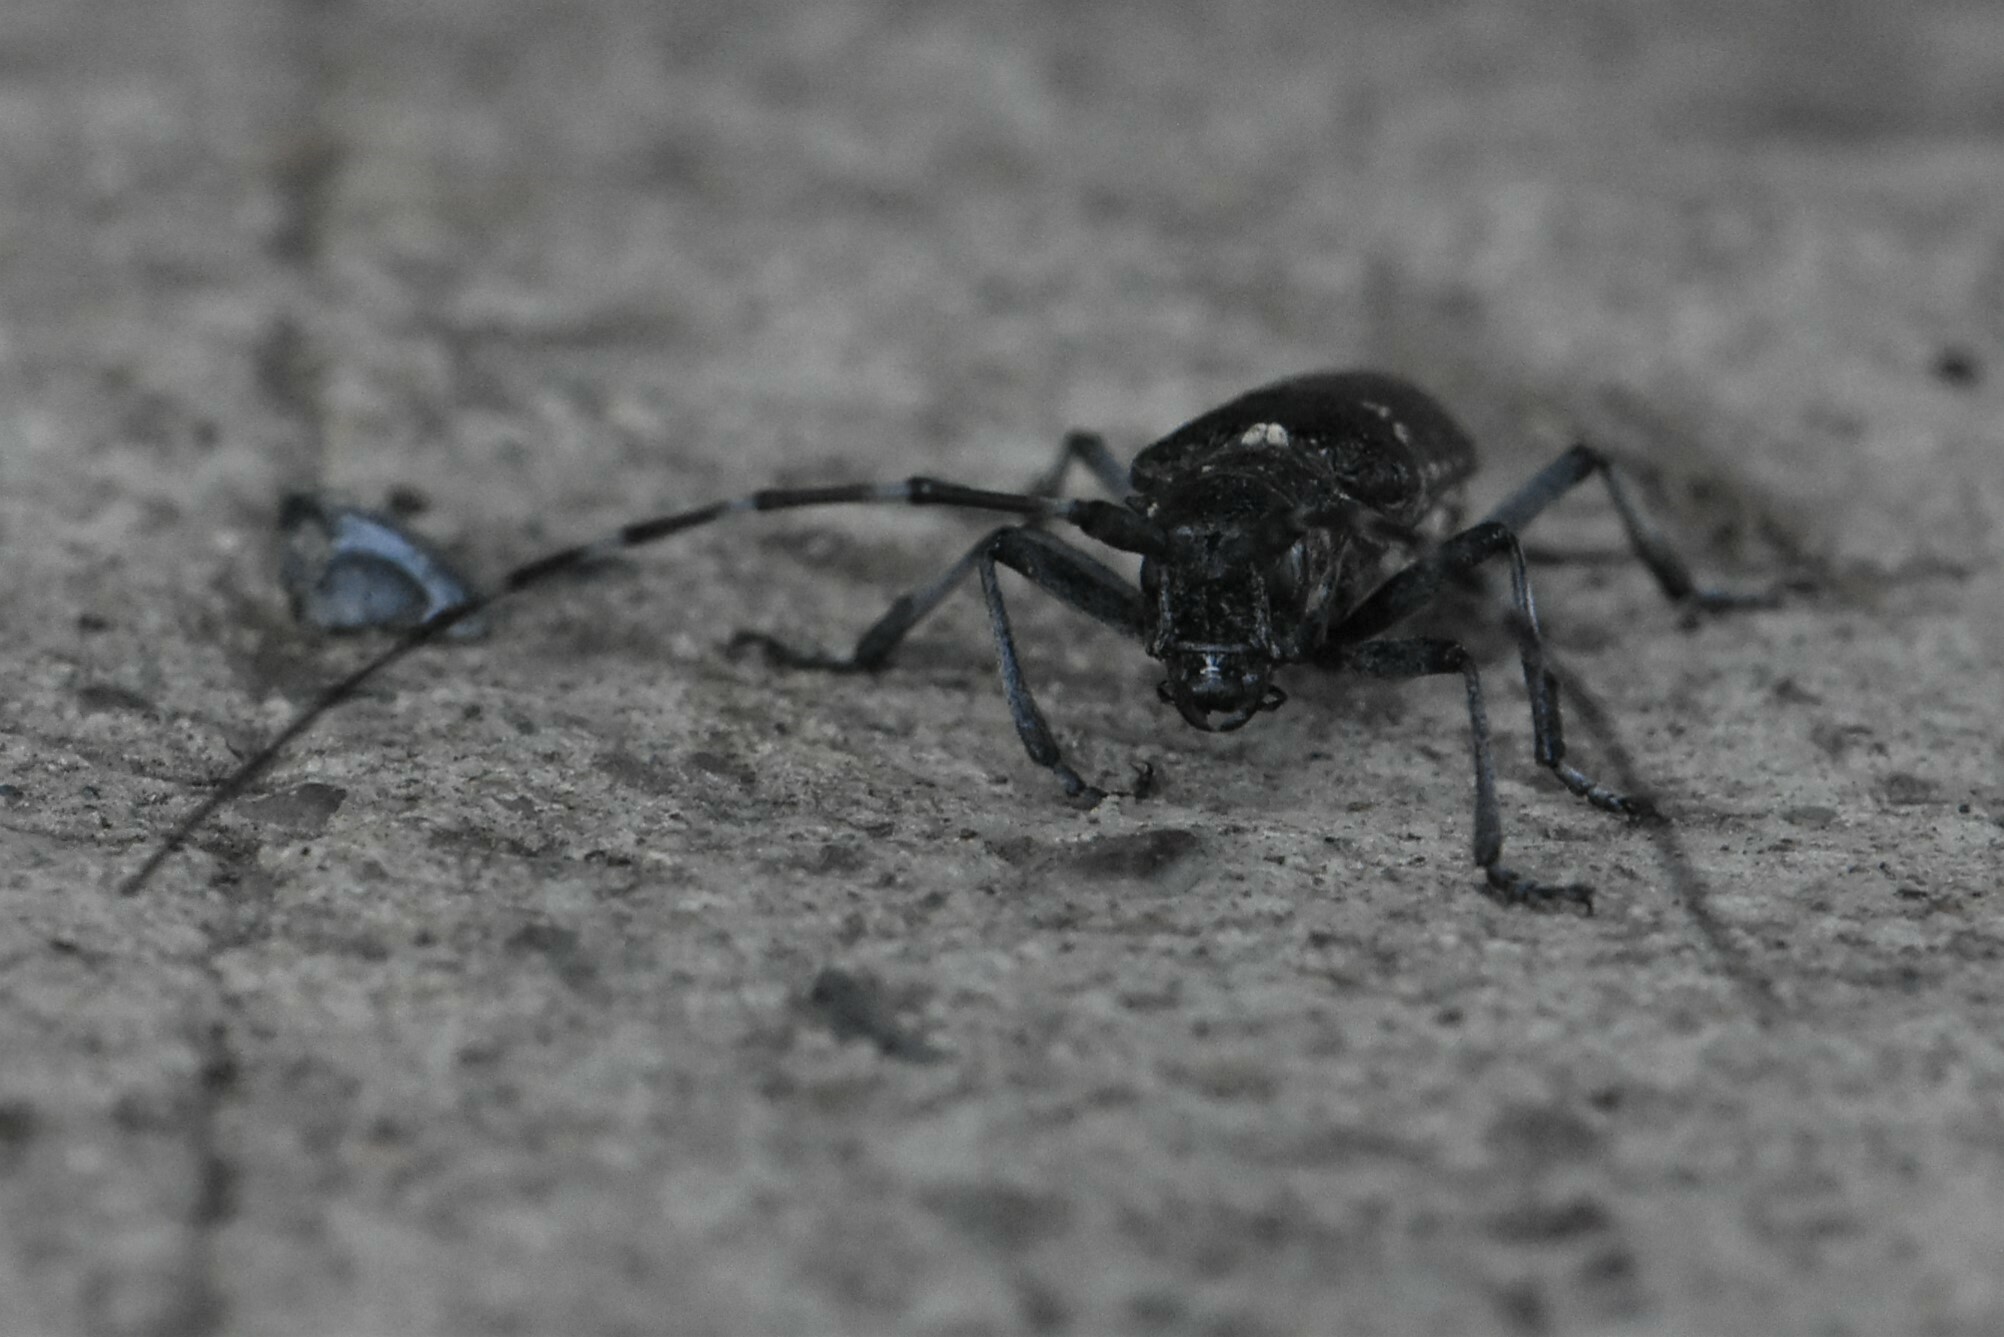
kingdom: Animalia
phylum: Arthropoda
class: Insecta
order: Coleoptera
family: Cerambycidae
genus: Monochamus
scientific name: Monochamus sutor
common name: Pine sawyer
